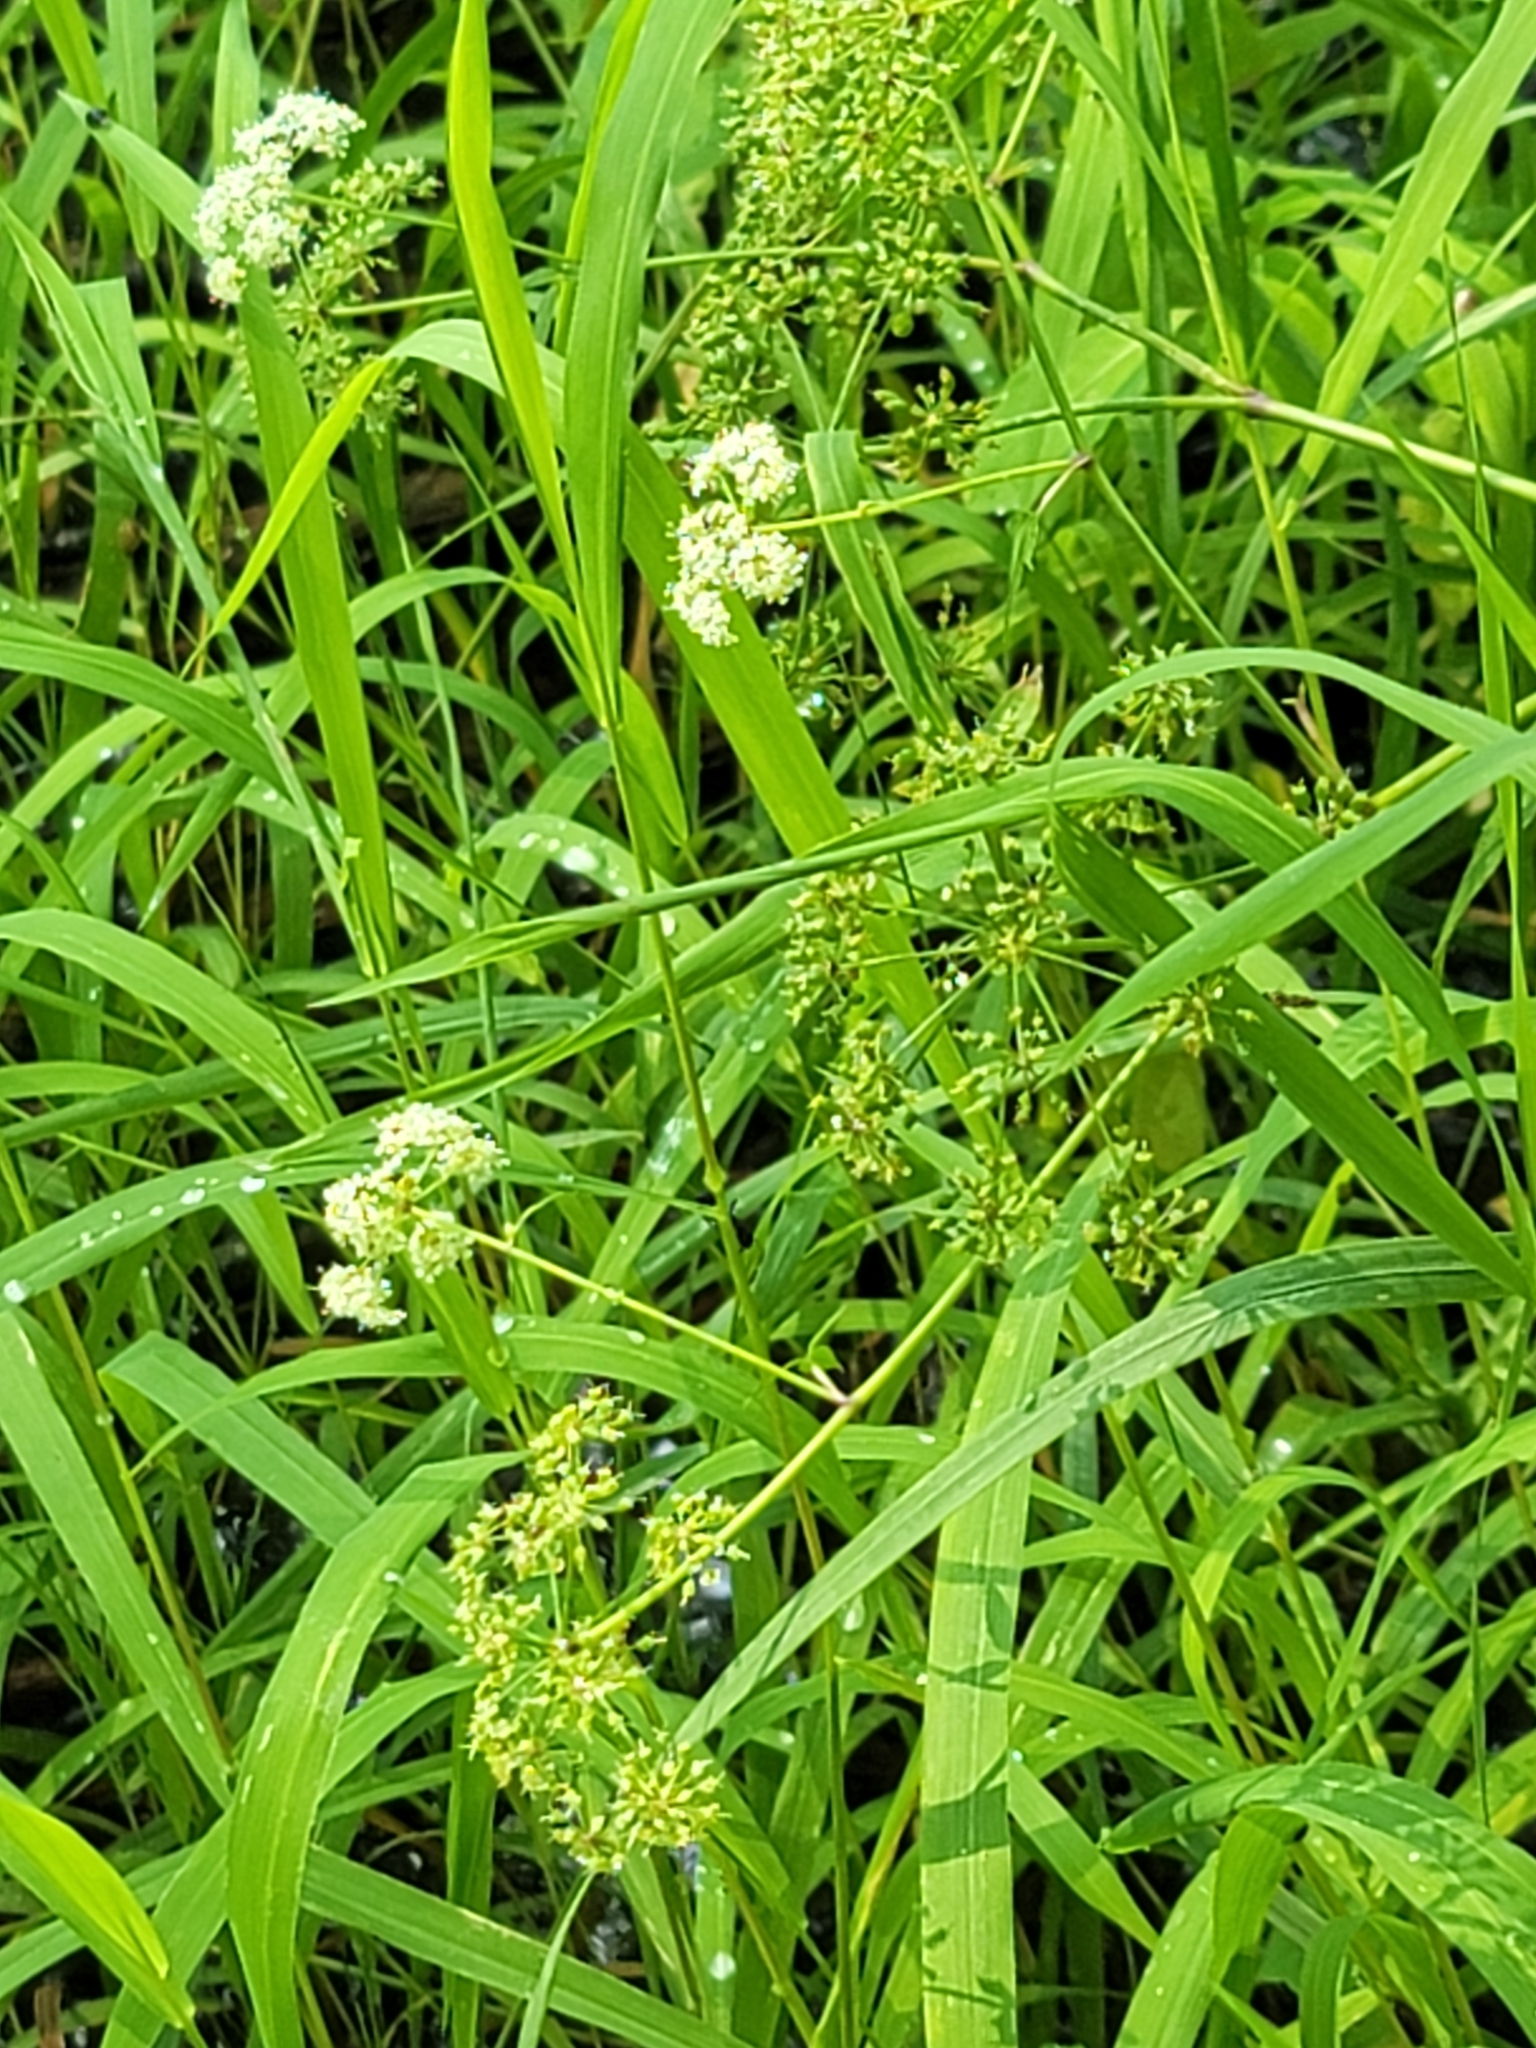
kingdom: Plantae
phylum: Tracheophyta
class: Magnoliopsida
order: Apiales
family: Apiaceae
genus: Sium
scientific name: Sium suave
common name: Hemlock water-parsnip
